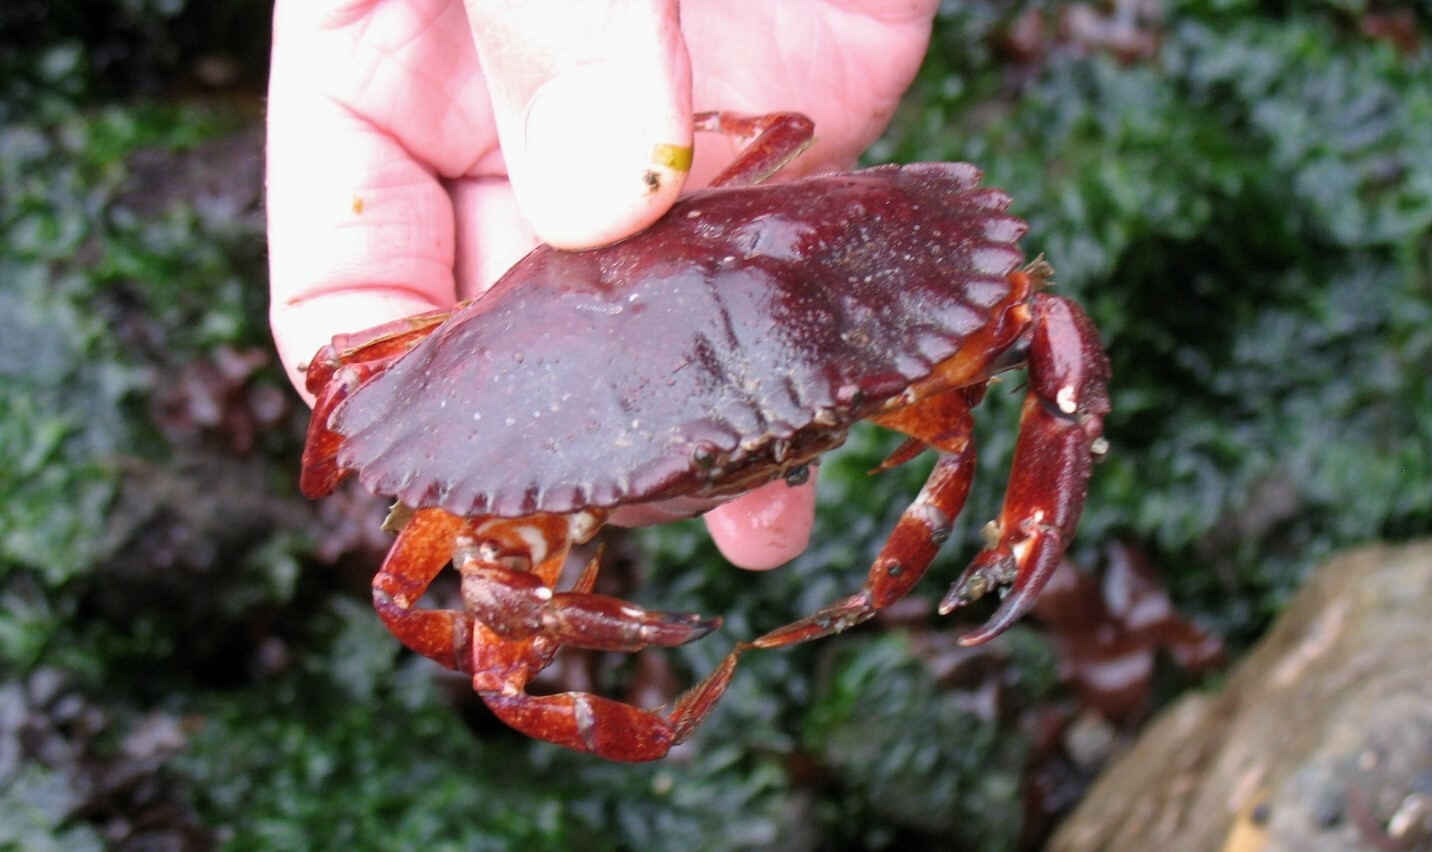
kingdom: Animalia
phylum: Arthropoda
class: Malacostraca
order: Decapoda
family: Cancridae
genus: Cancer
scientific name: Cancer productus
